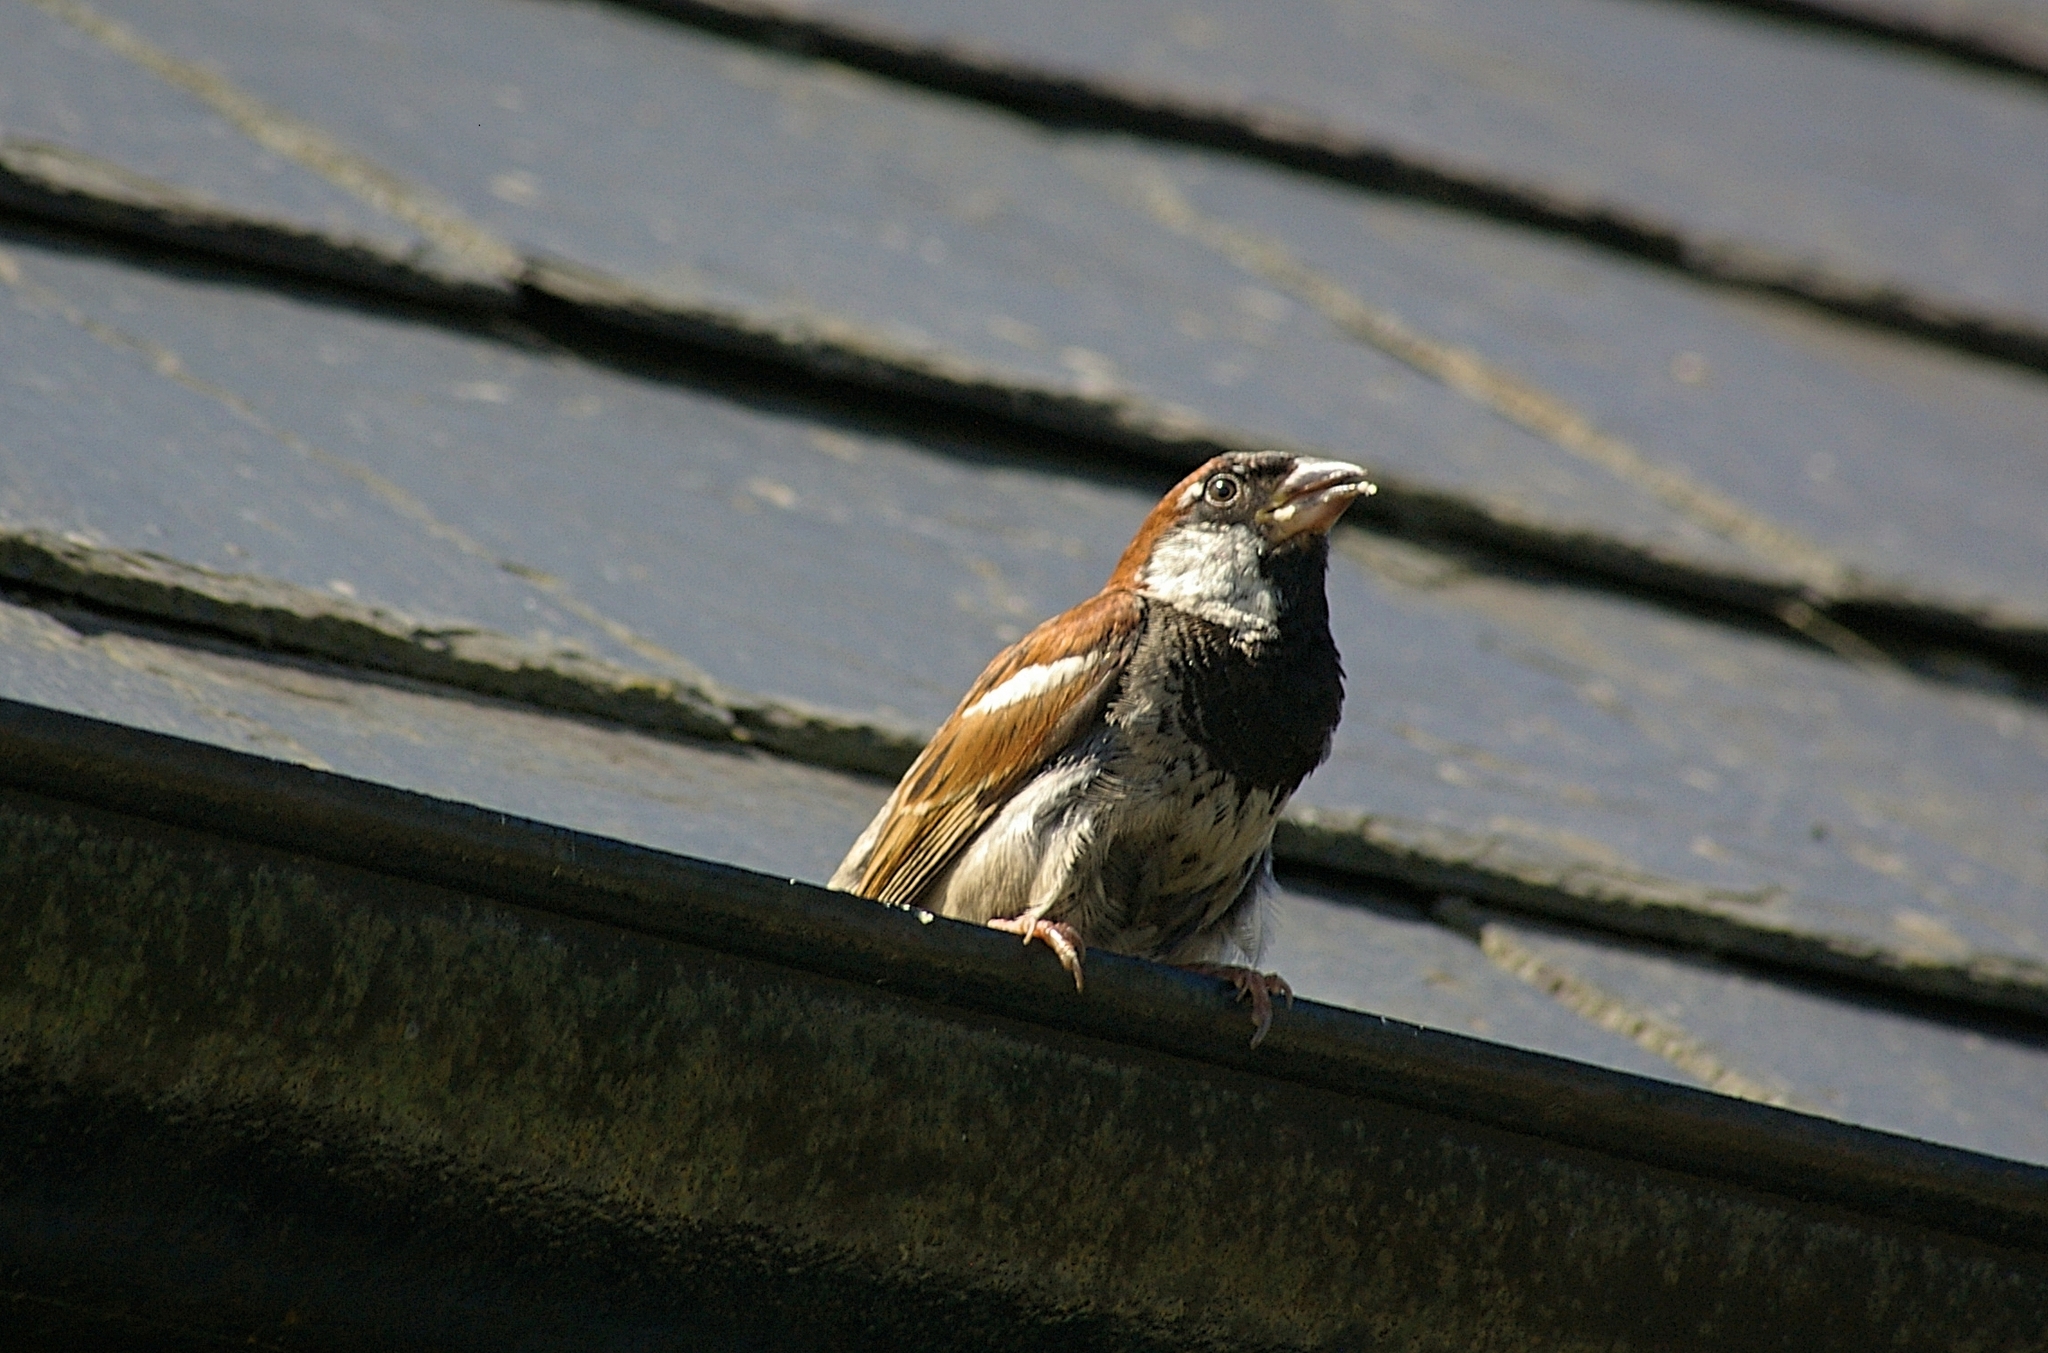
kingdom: Animalia
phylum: Chordata
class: Aves
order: Passeriformes
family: Passeridae
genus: Passer
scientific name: Passer domesticus
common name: House sparrow
